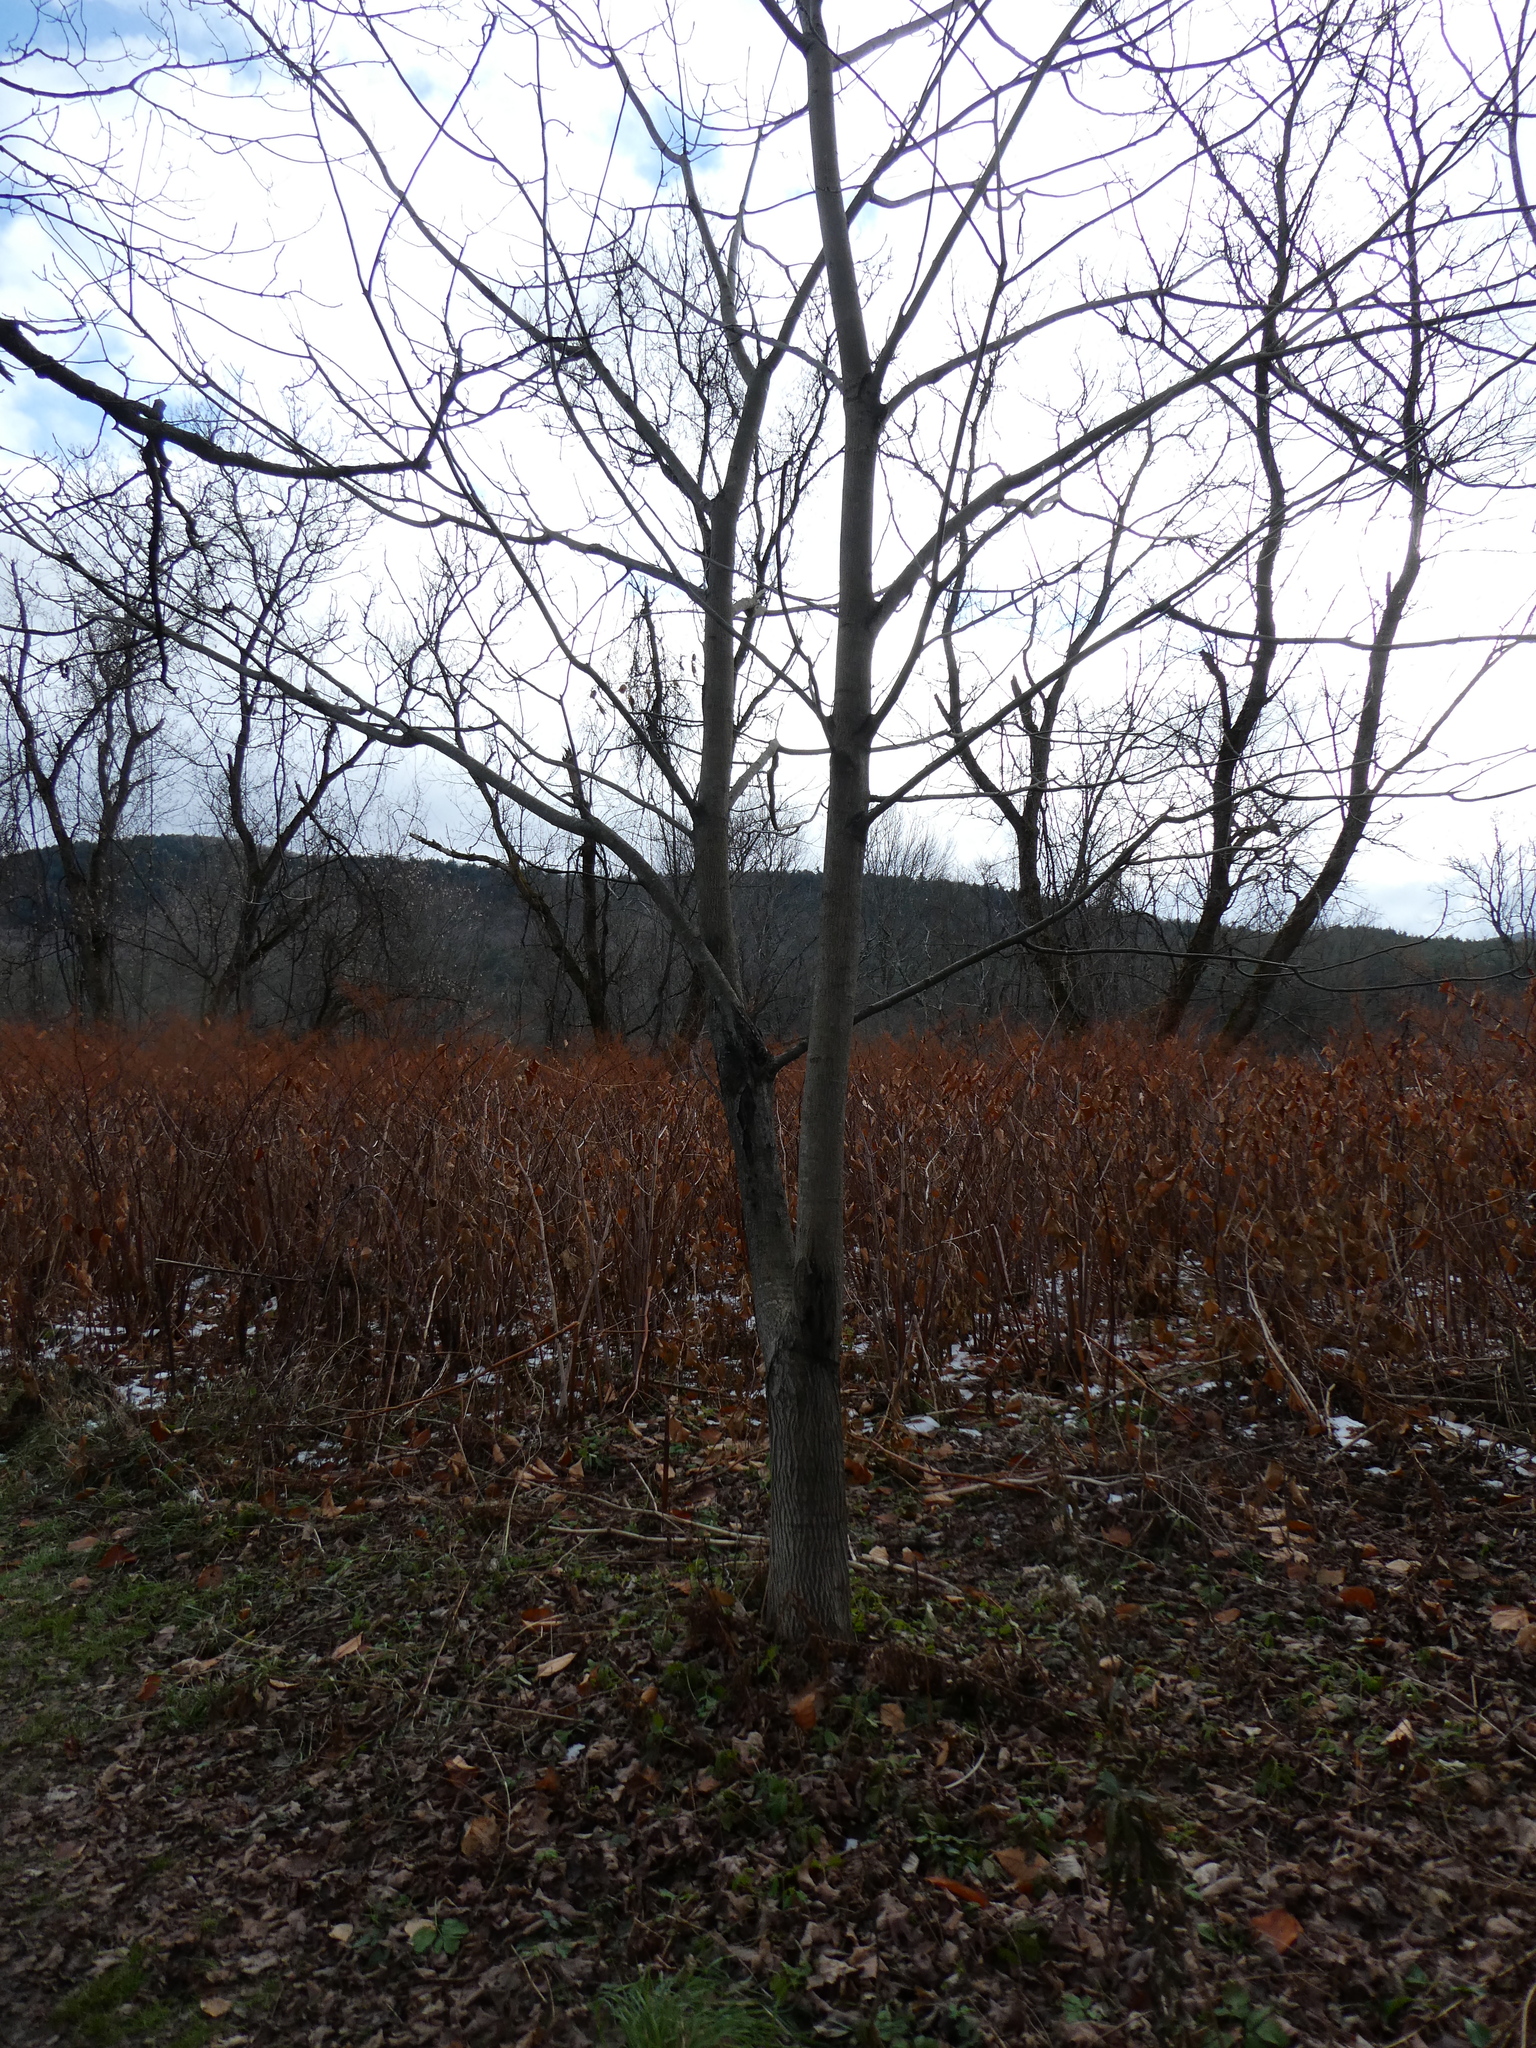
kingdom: Plantae
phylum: Tracheophyta
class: Magnoliopsida
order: Fagales
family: Juglandaceae
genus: Juglans
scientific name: Juglans cinerea
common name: Butternut
